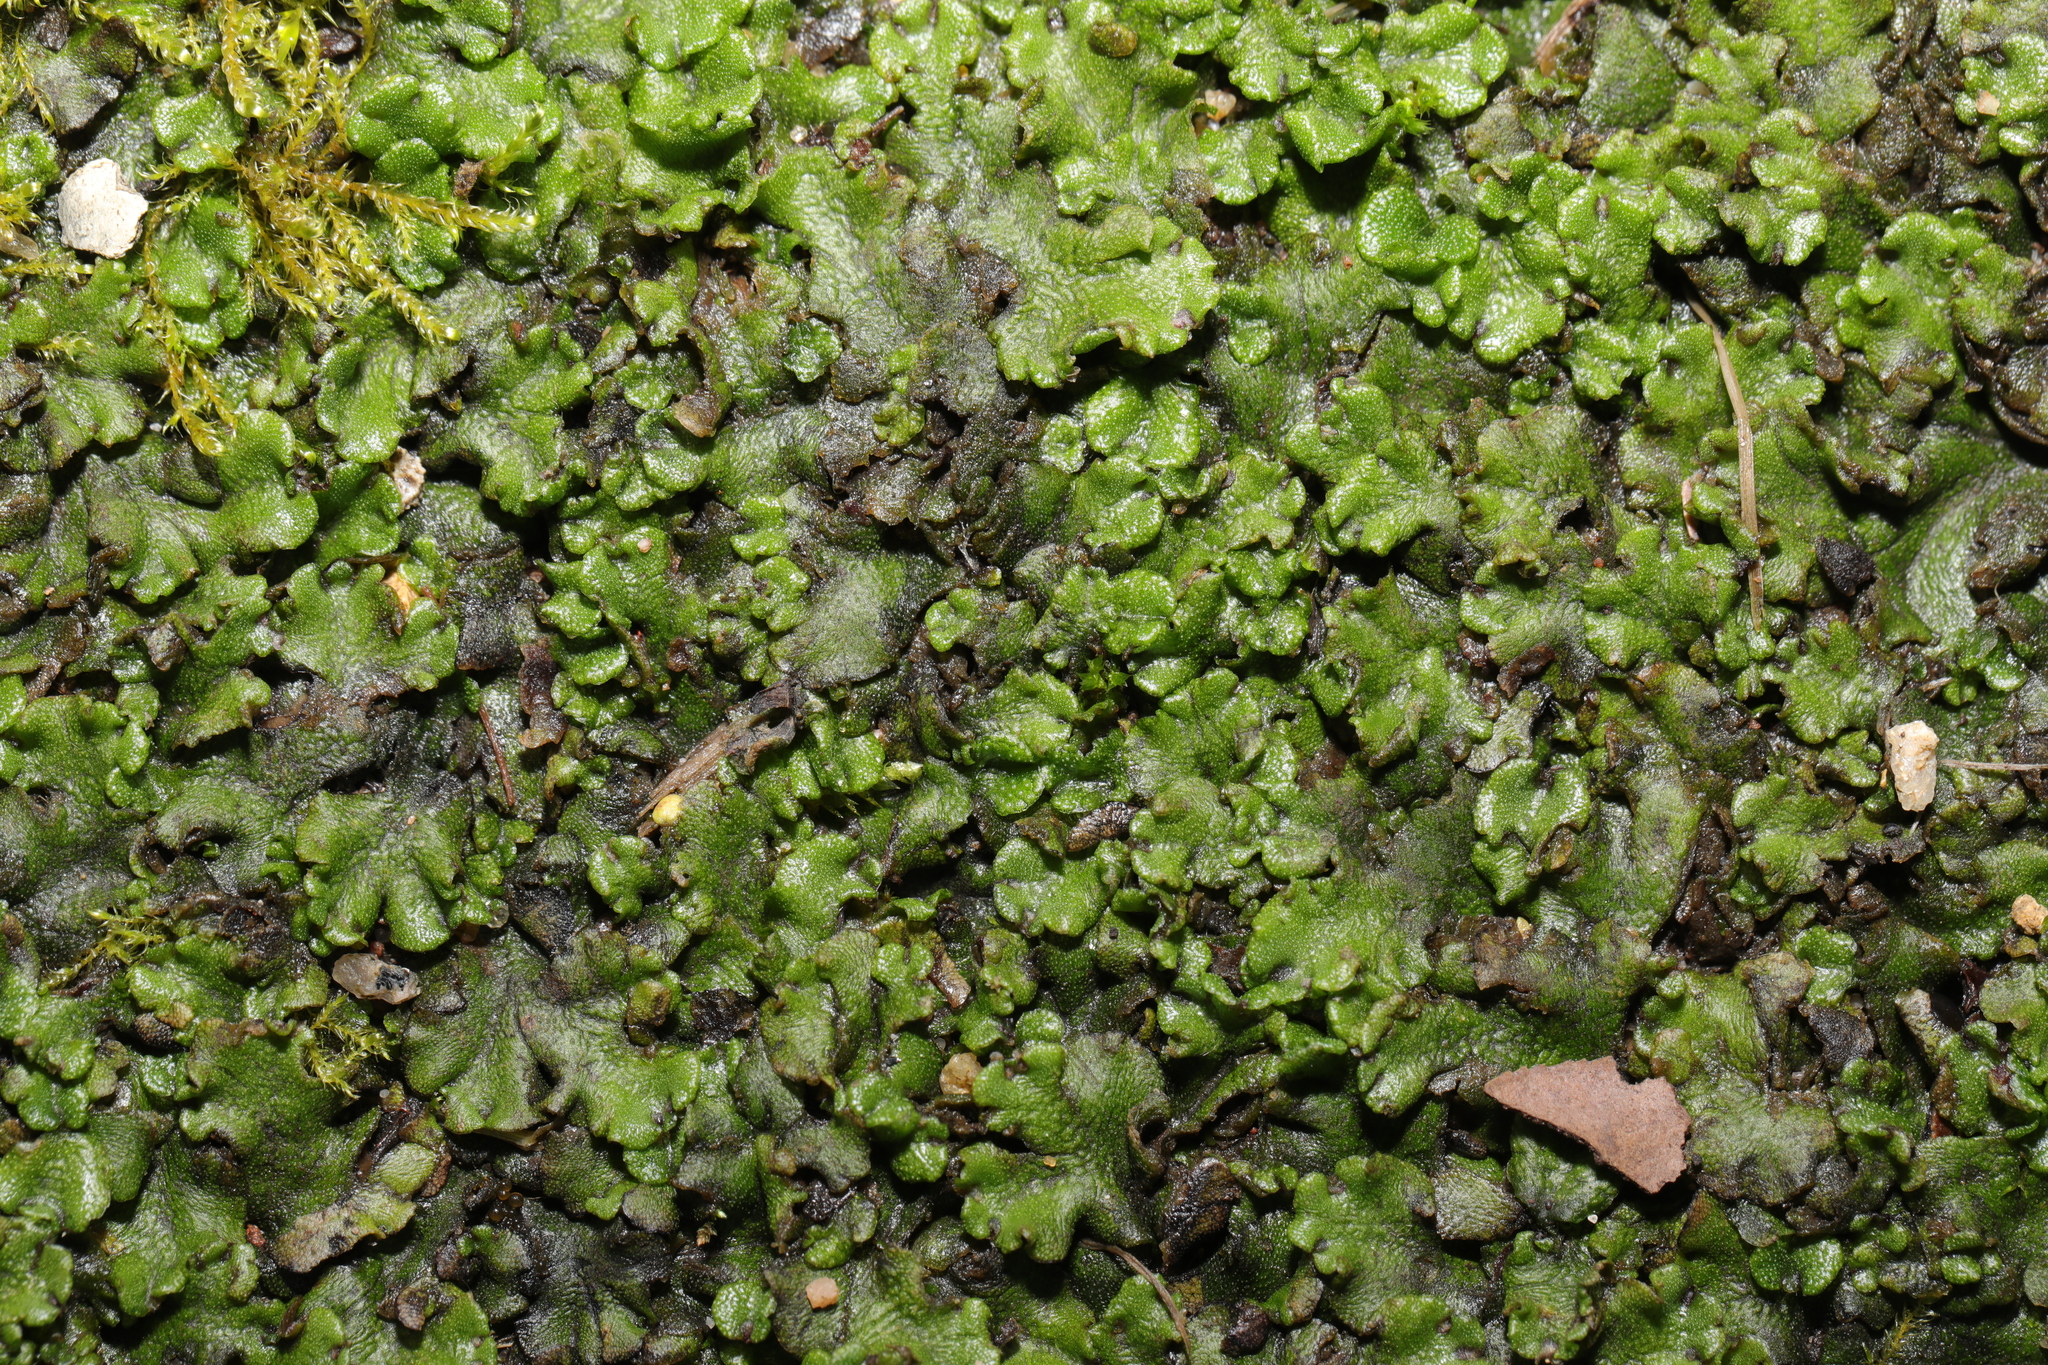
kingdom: Plantae
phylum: Marchantiophyta
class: Marchantiopsida
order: Marchantiales
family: Marchantiaceae
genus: Marchantia
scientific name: Marchantia polymorpha
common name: Common liverwort
